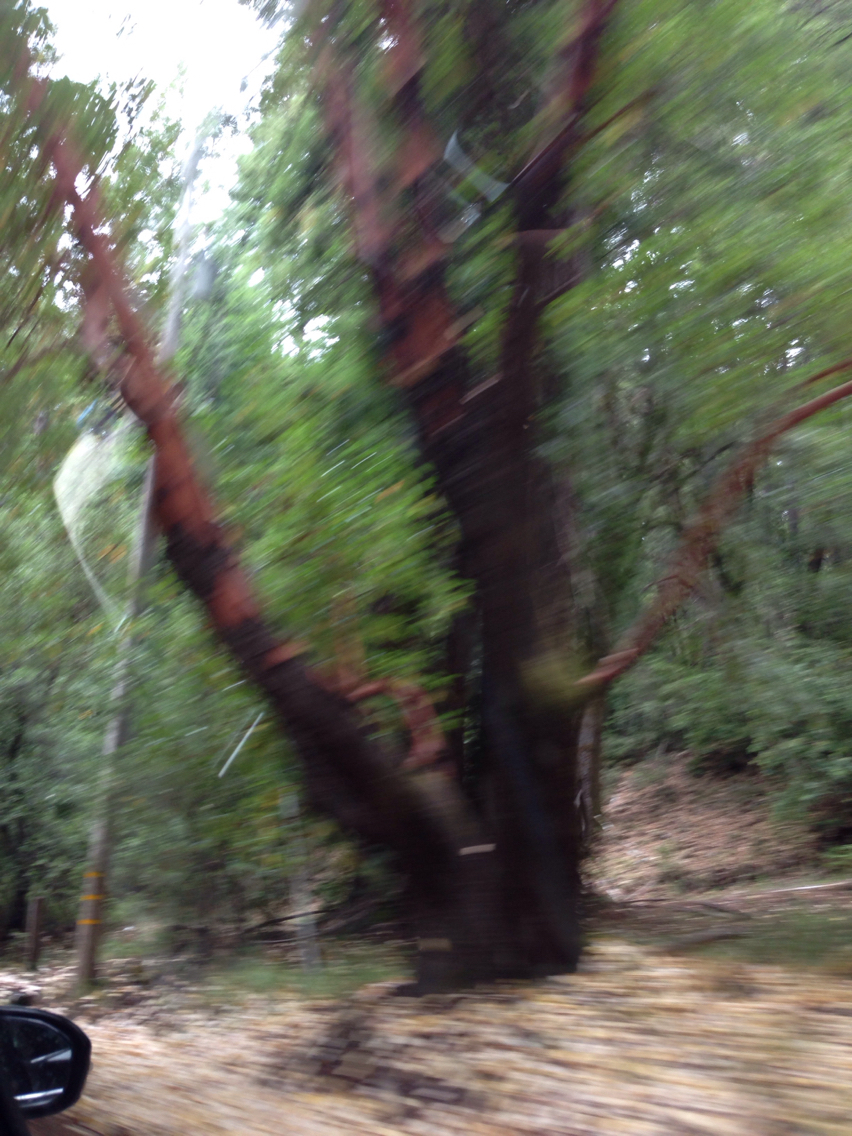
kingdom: Plantae
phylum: Tracheophyta
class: Magnoliopsida
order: Ericales
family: Ericaceae
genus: Arbutus
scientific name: Arbutus menziesii
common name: Pacific madrone
